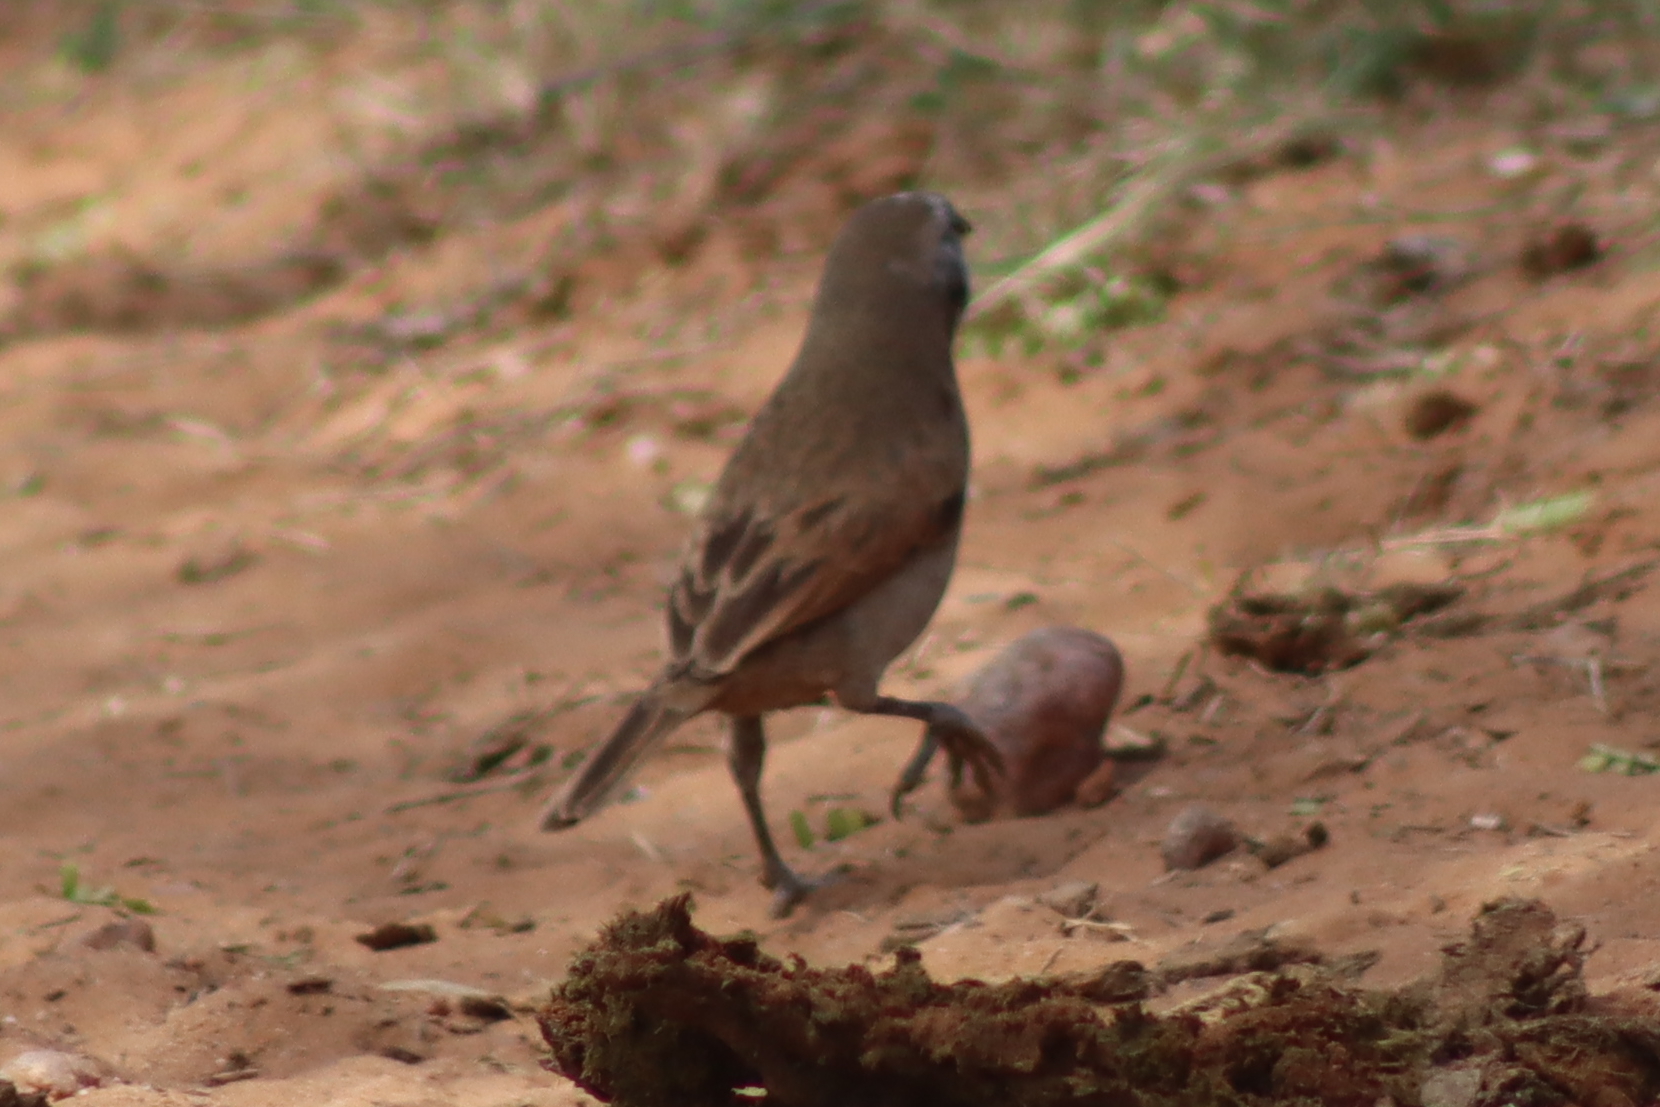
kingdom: Animalia
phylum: Chordata
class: Aves
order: Passeriformes
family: Icteridae
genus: Agelaioides
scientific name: Agelaioides badius
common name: Baywing
